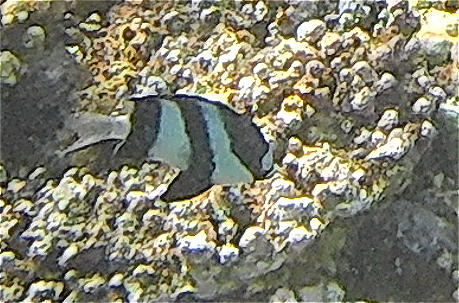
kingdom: Animalia
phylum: Chordata
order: Perciformes
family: Pomacentridae
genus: Dascyllus
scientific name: Dascyllus abudafur
